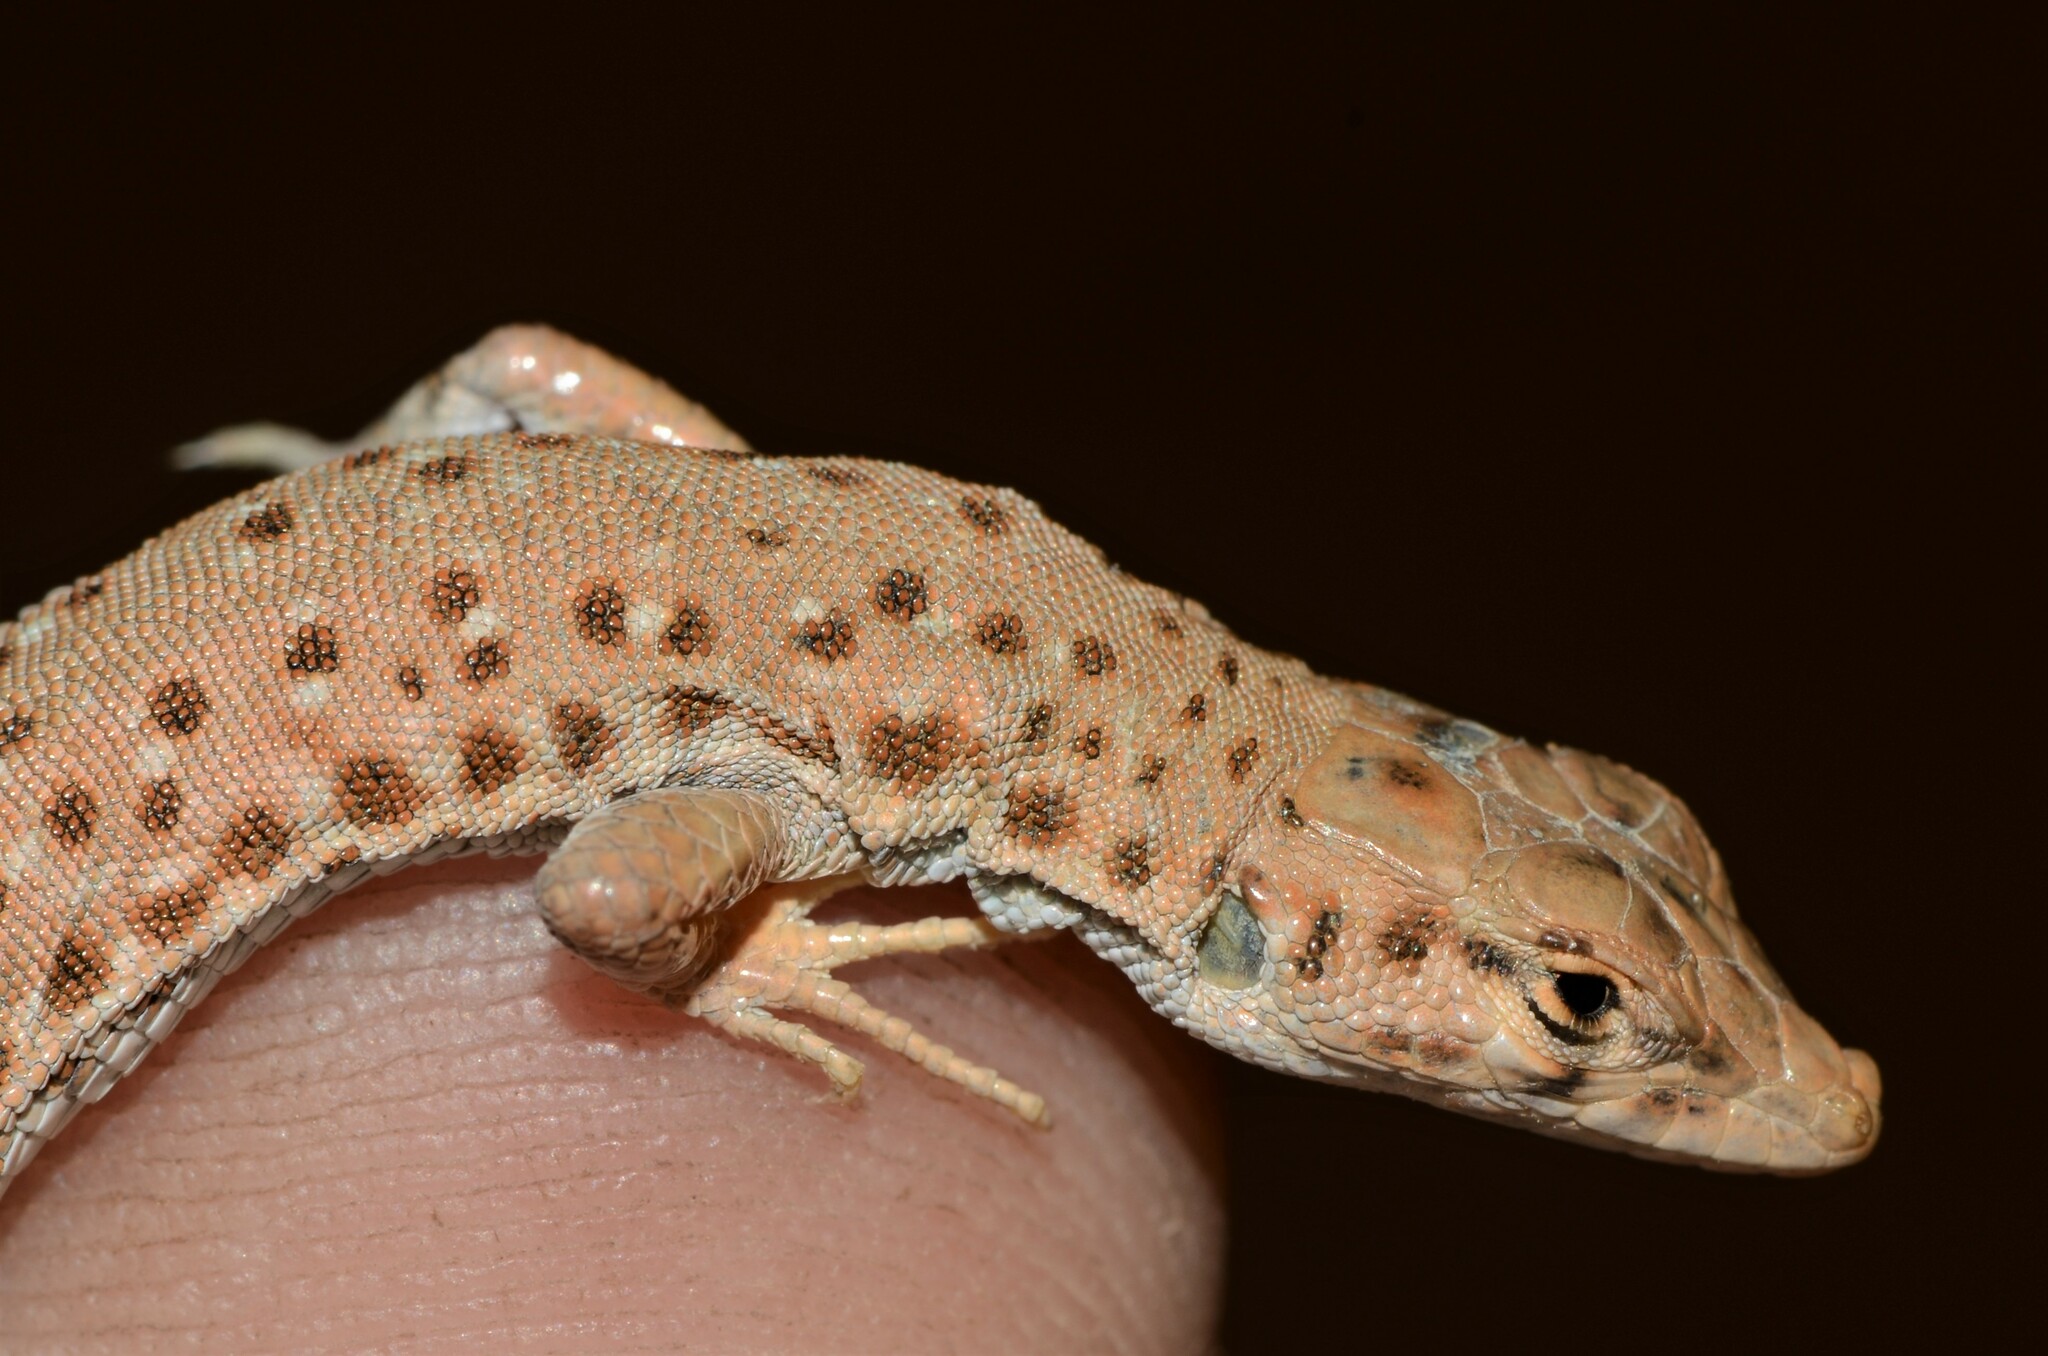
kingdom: Animalia
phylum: Chordata
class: Squamata
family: Lacertidae
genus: Mesalina
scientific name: Mesalina brevirostris
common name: Blanford's short-nosed desert lizard
